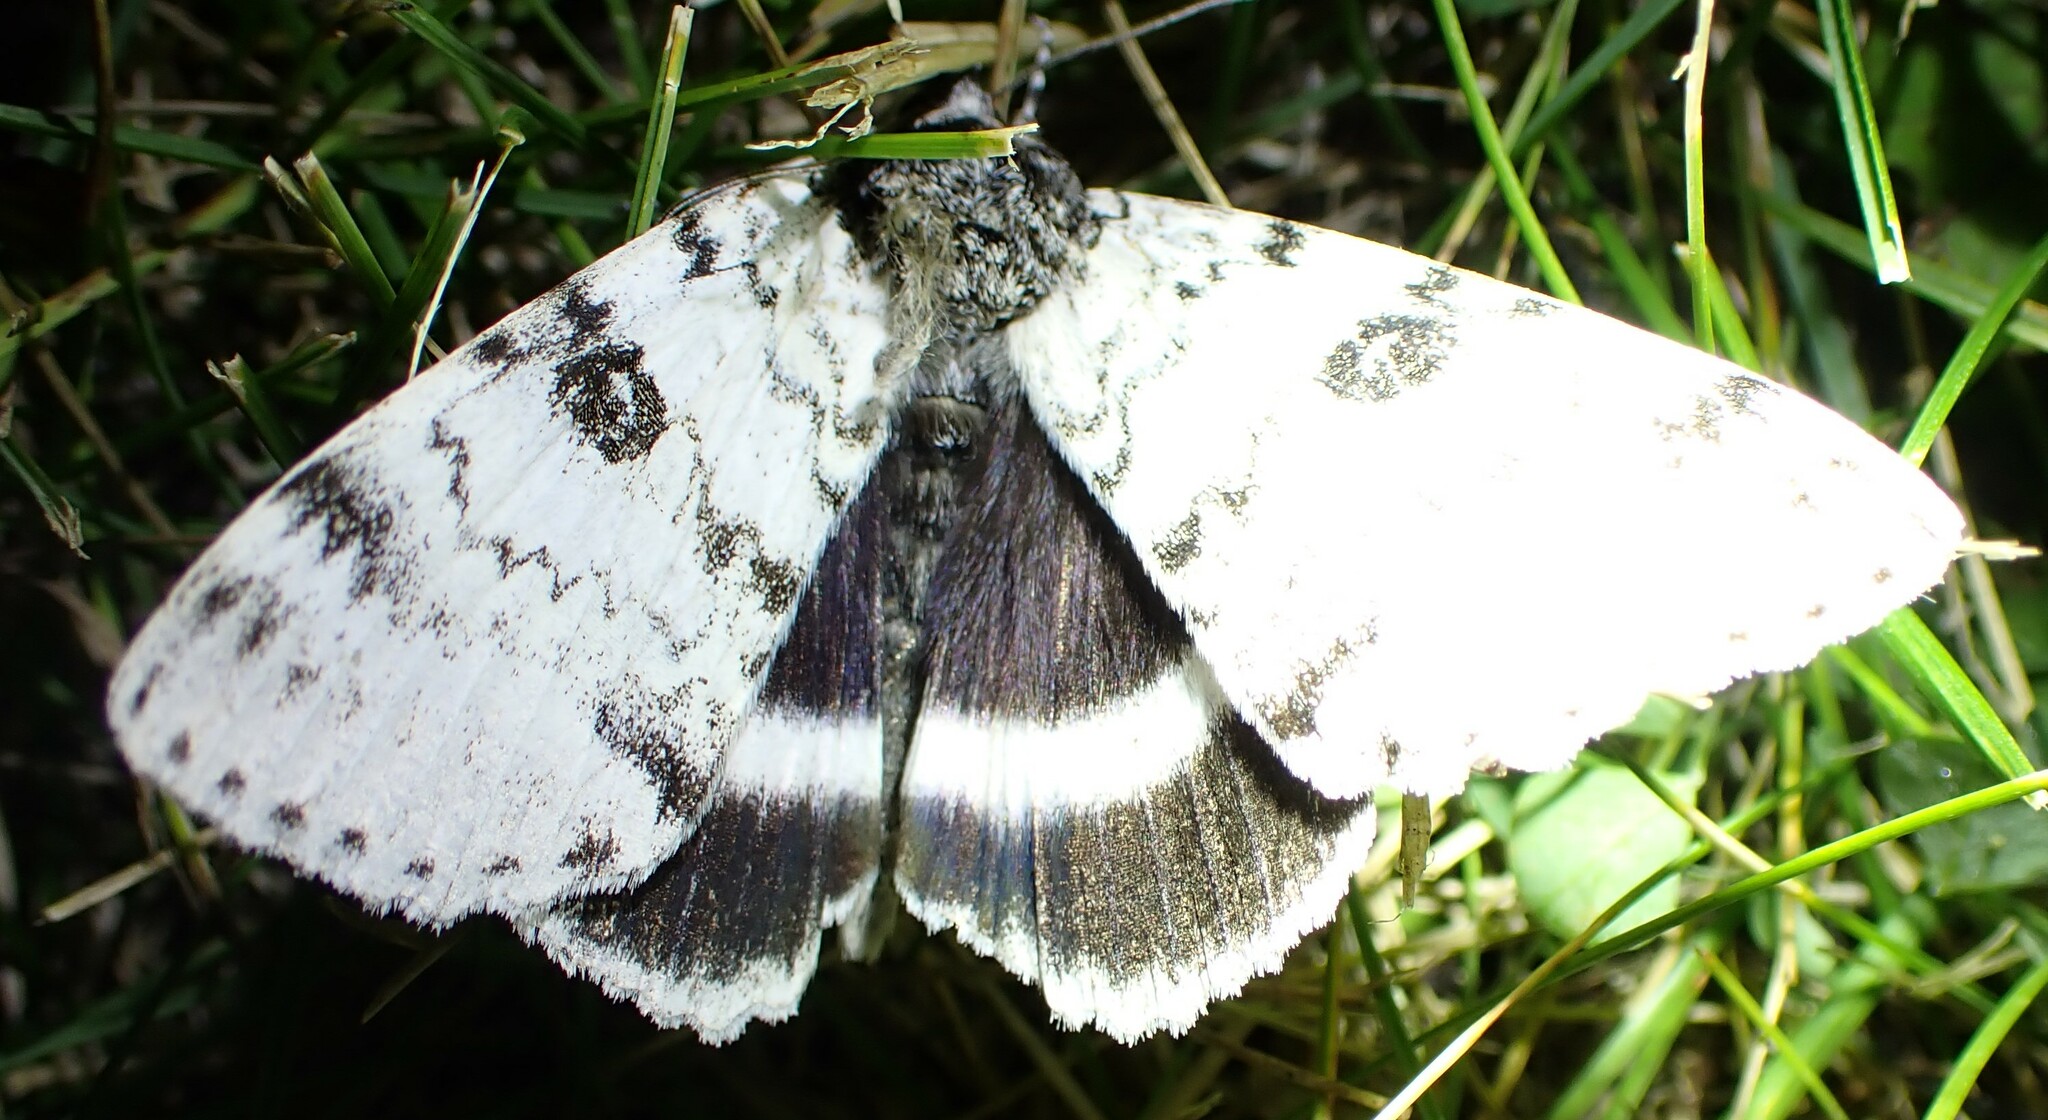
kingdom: Animalia
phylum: Arthropoda
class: Insecta
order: Lepidoptera
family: Erebidae
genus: Catocala
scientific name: Catocala relicta
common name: White underwing
